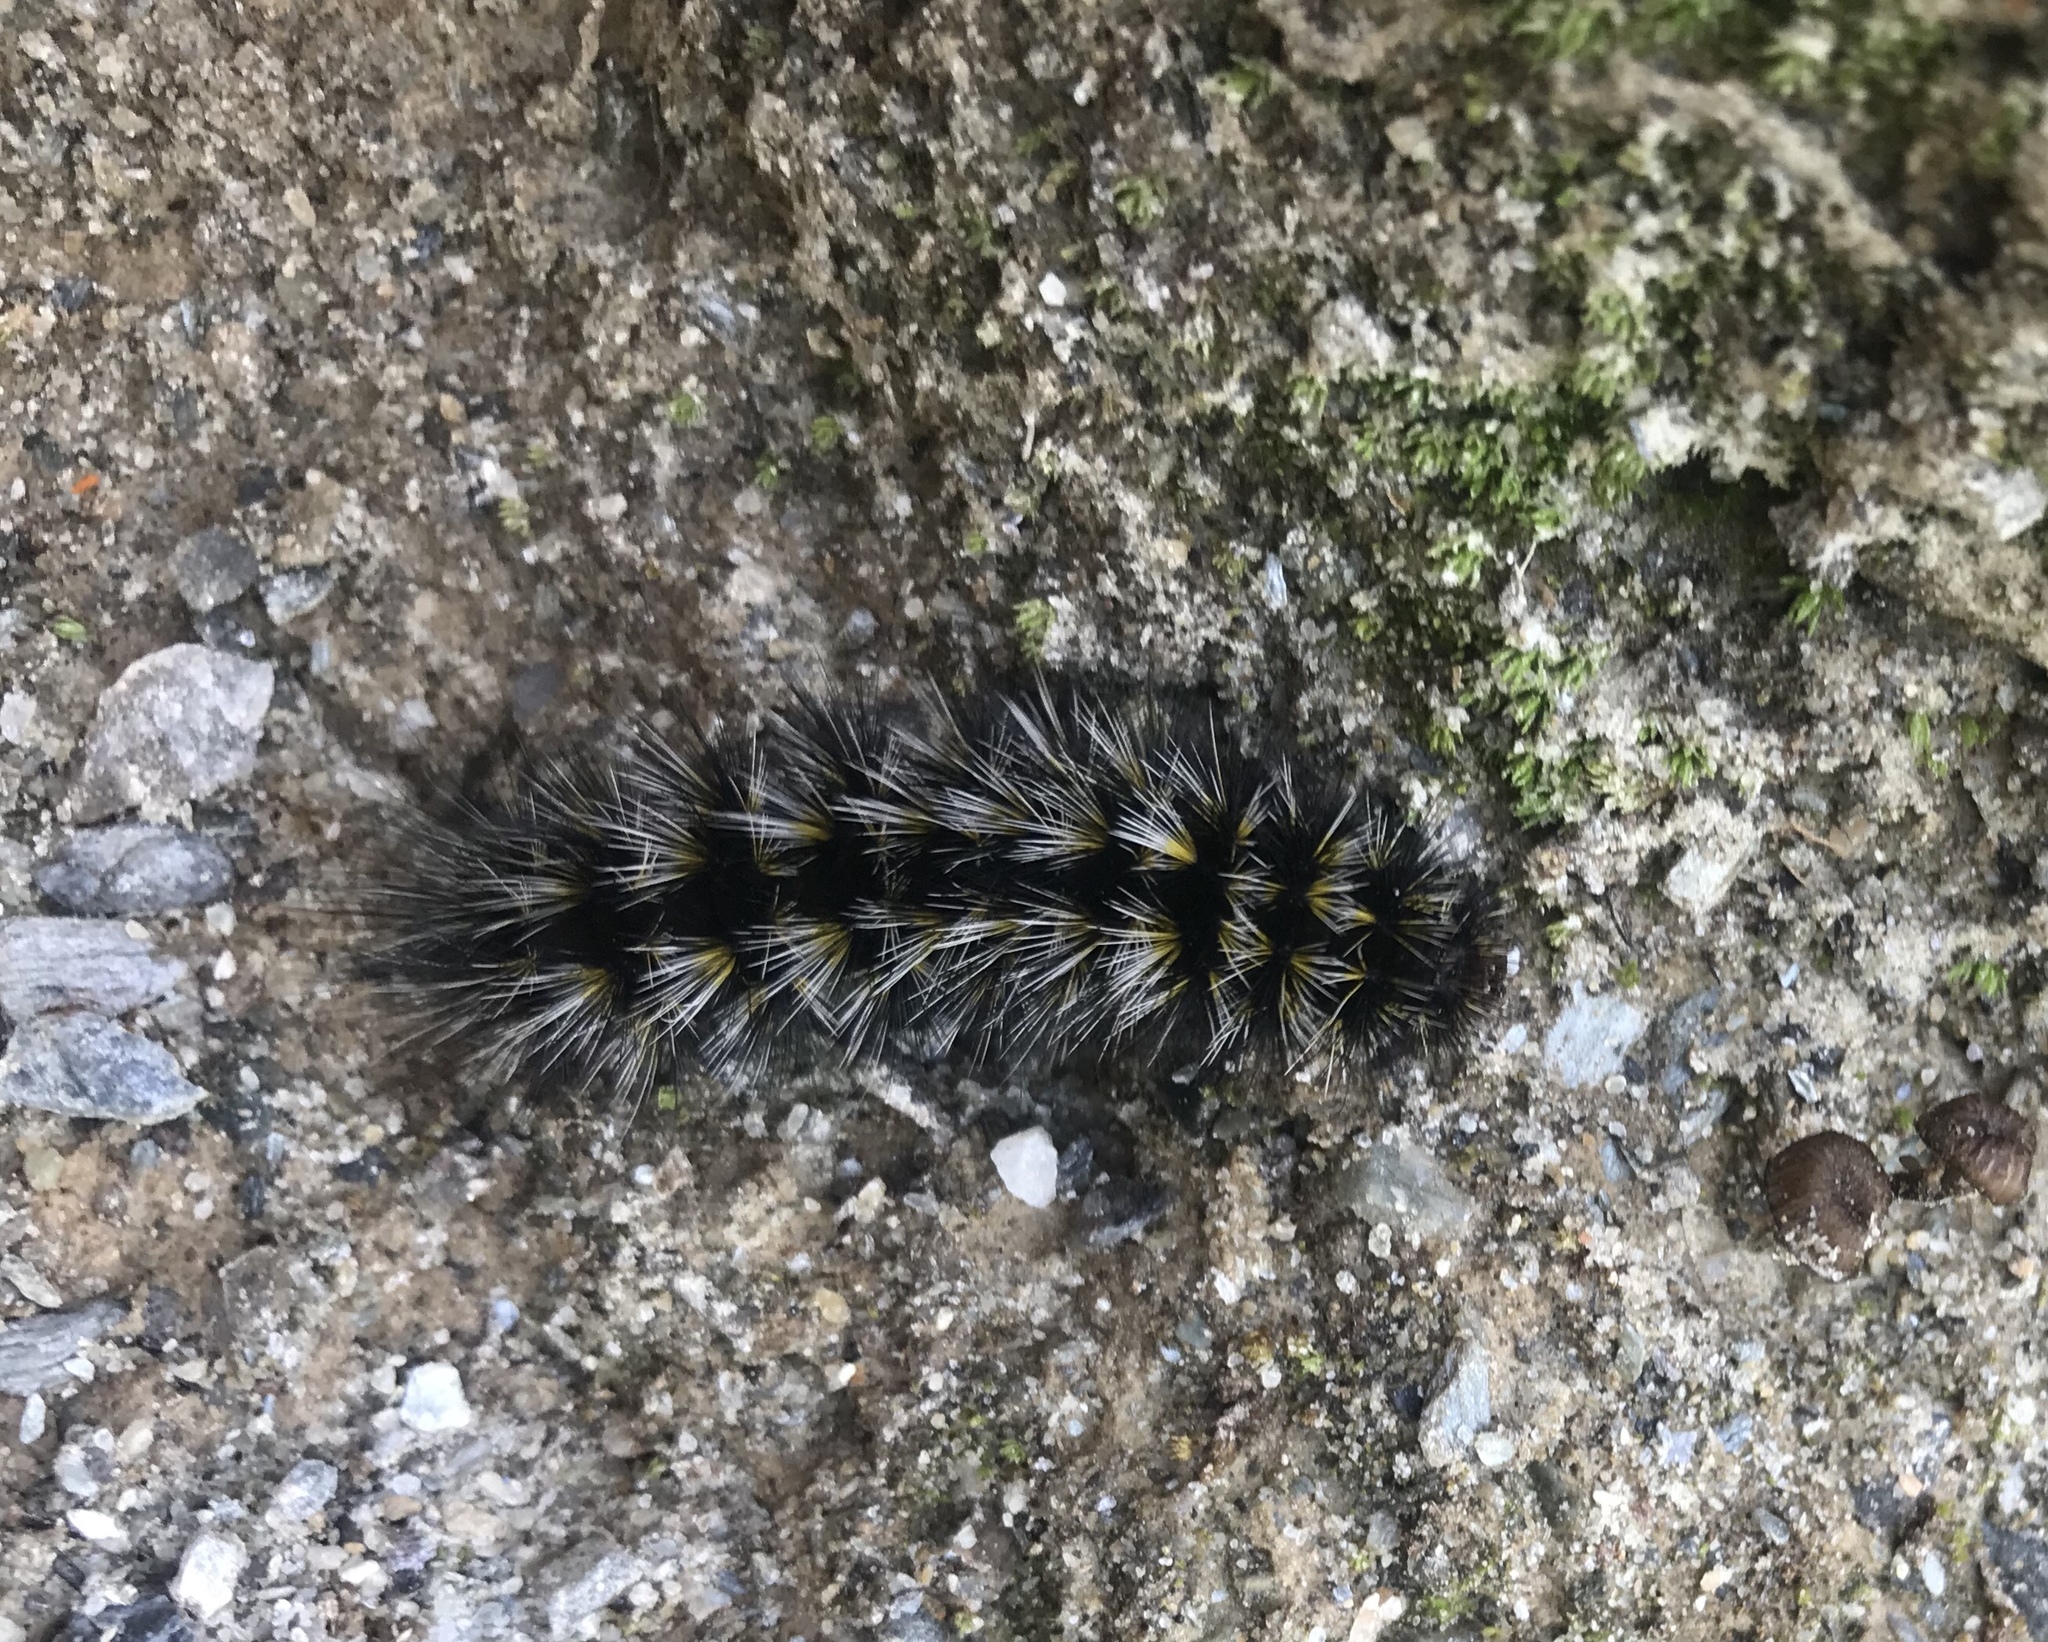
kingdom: Animalia
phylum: Arthropoda
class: Insecta
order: Lepidoptera
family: Erebidae
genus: Arctia
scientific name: Arctia
